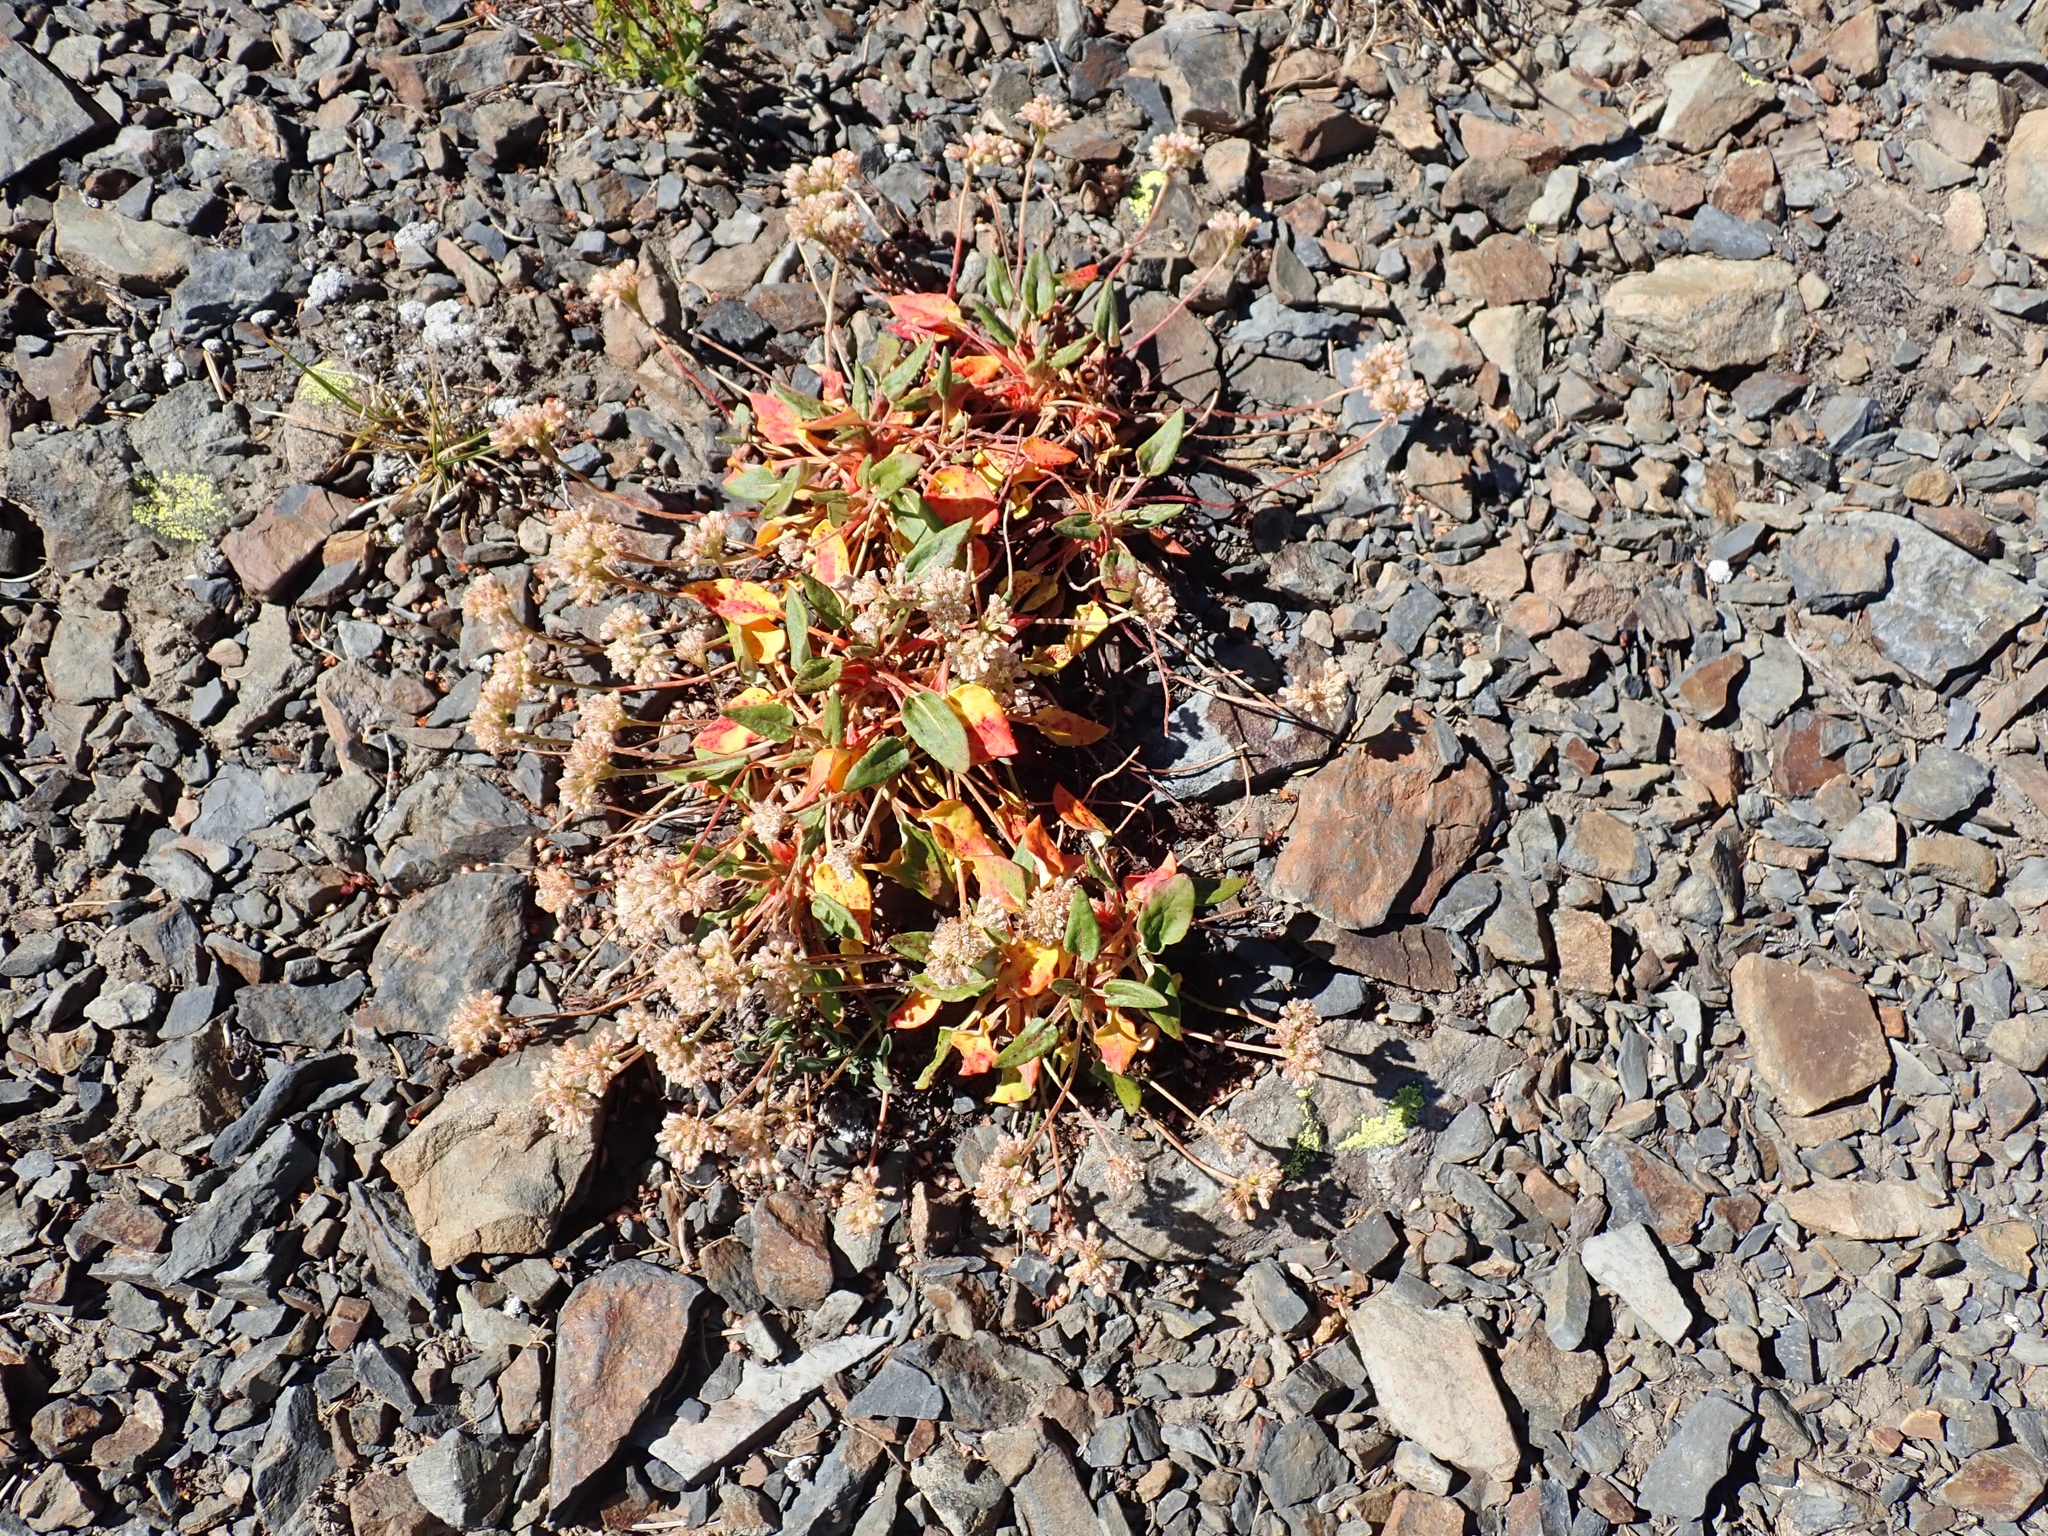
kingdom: Plantae
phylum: Tracheophyta
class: Magnoliopsida
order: Caryophyllales
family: Polygonaceae
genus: Eriogonum
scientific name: Eriogonum pyrolifolium
